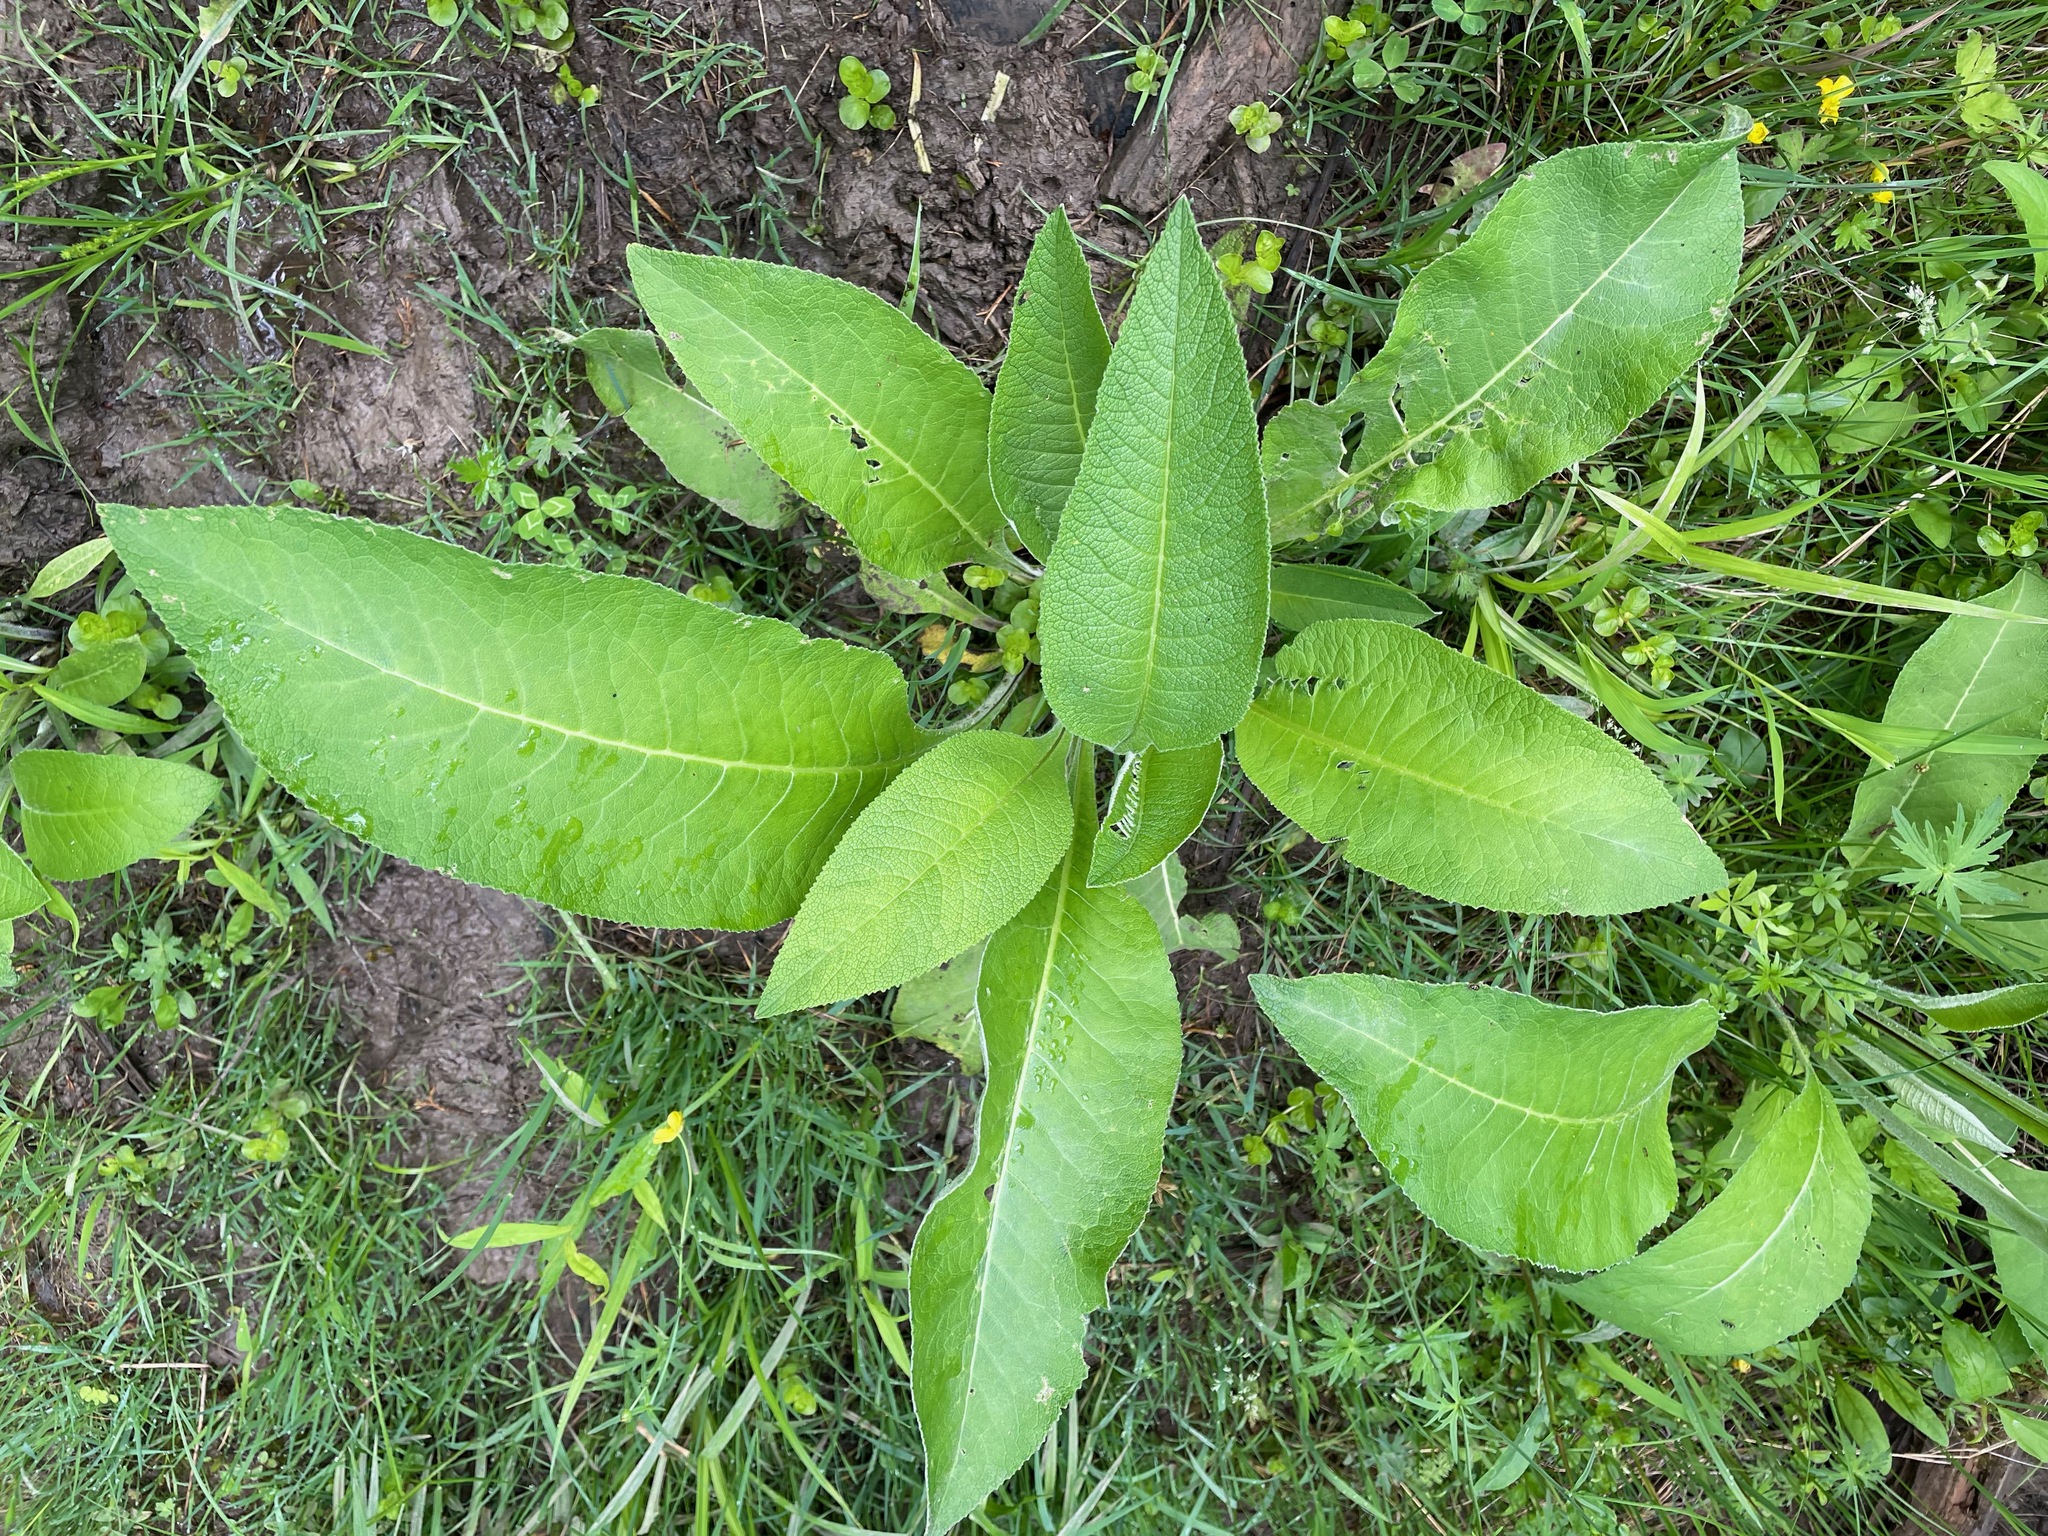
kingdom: Plantae
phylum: Tracheophyta
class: Magnoliopsida
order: Asterales
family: Asteraceae
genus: Inula
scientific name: Inula helenium
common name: Elecampane
